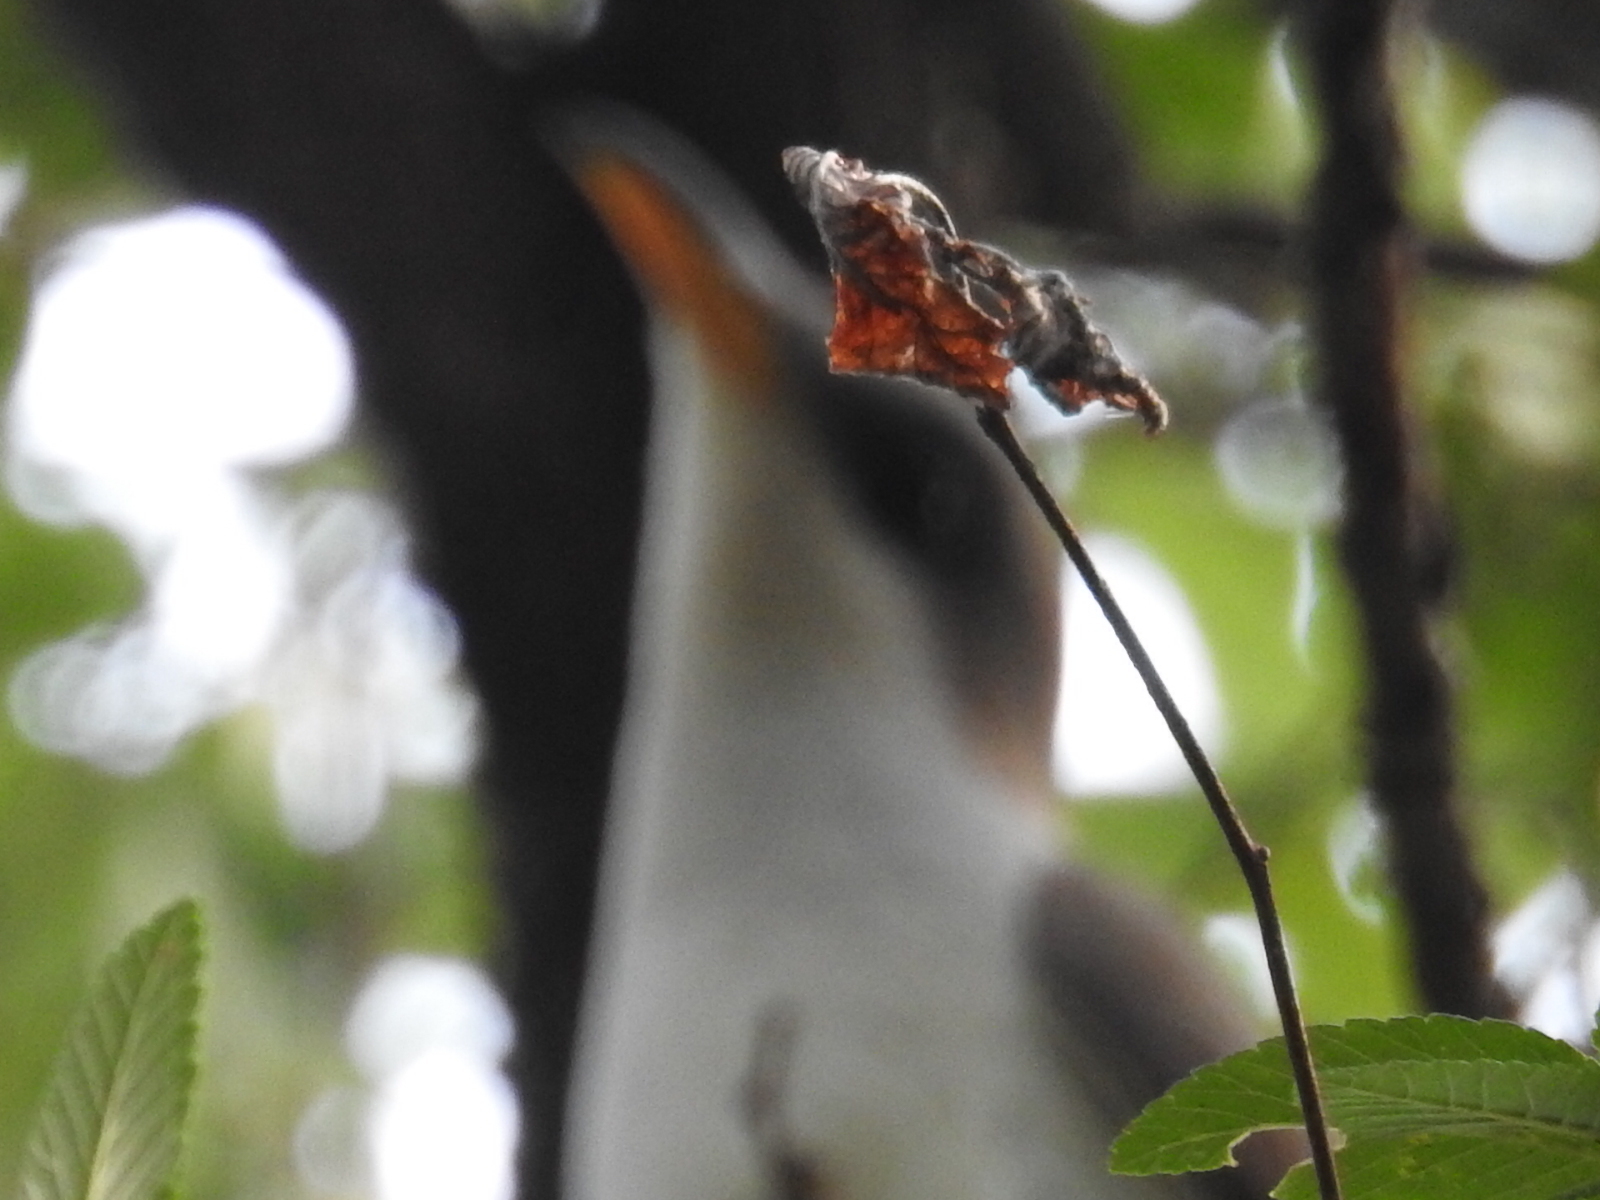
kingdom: Animalia
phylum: Chordata
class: Aves
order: Cuculiformes
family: Cuculidae
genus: Coccyzus
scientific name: Coccyzus americanus
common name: Yellow-billed cuckoo
